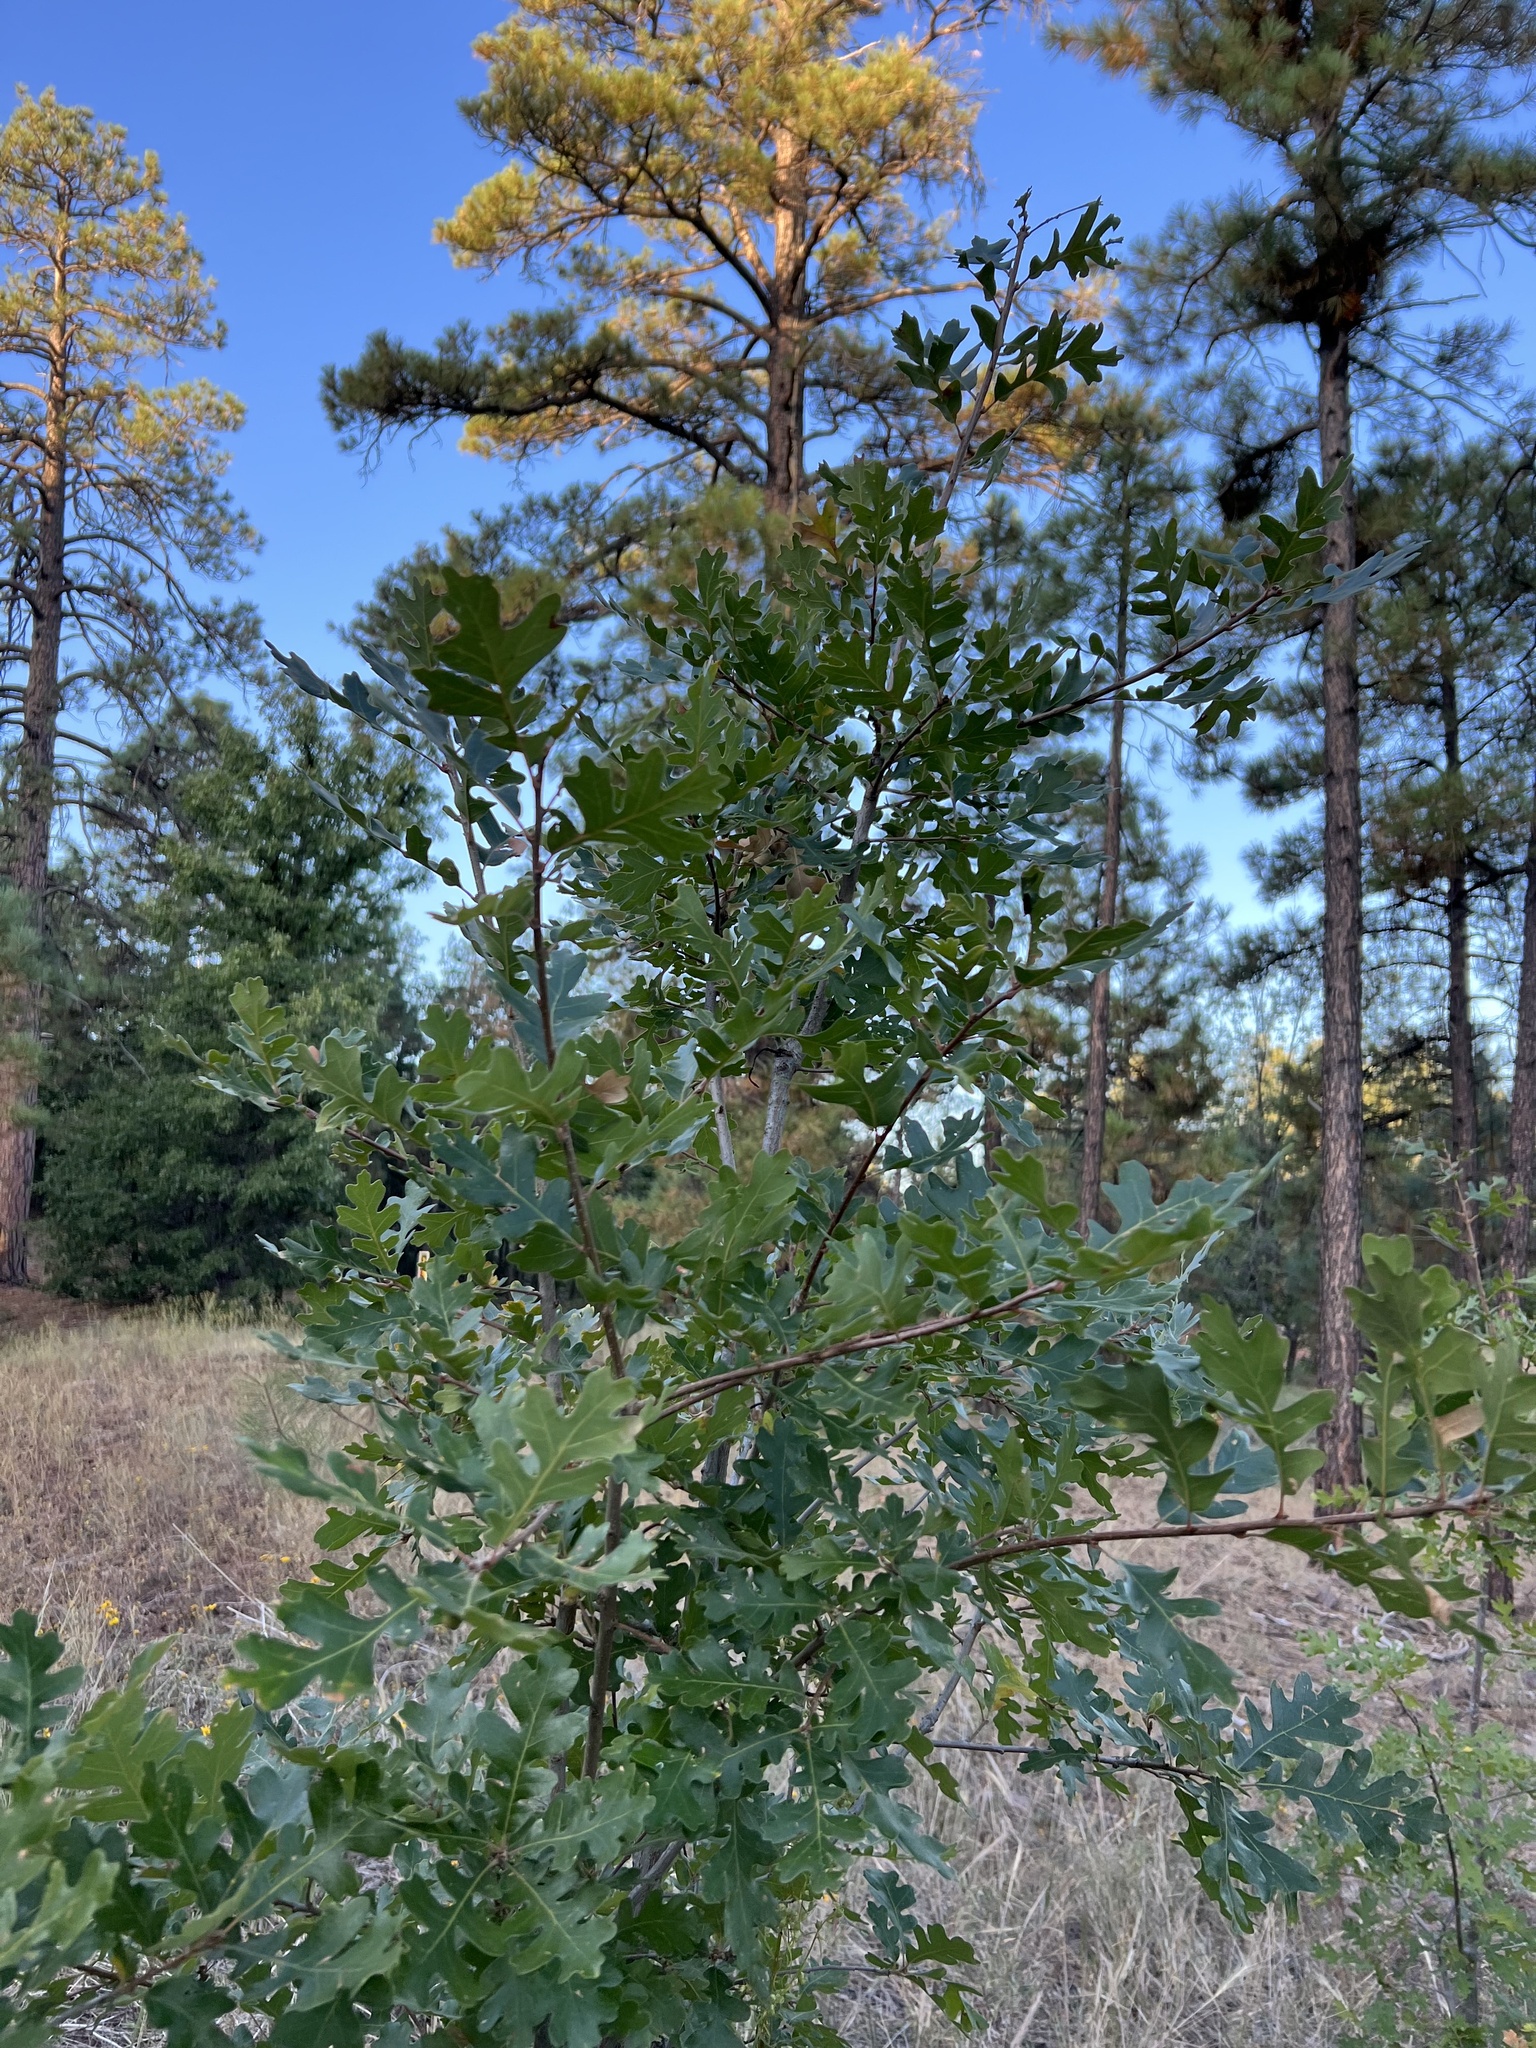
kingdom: Plantae
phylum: Tracheophyta
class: Magnoliopsida
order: Fagales
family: Fagaceae
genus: Quercus
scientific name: Quercus gambelii
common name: Gambel oak
